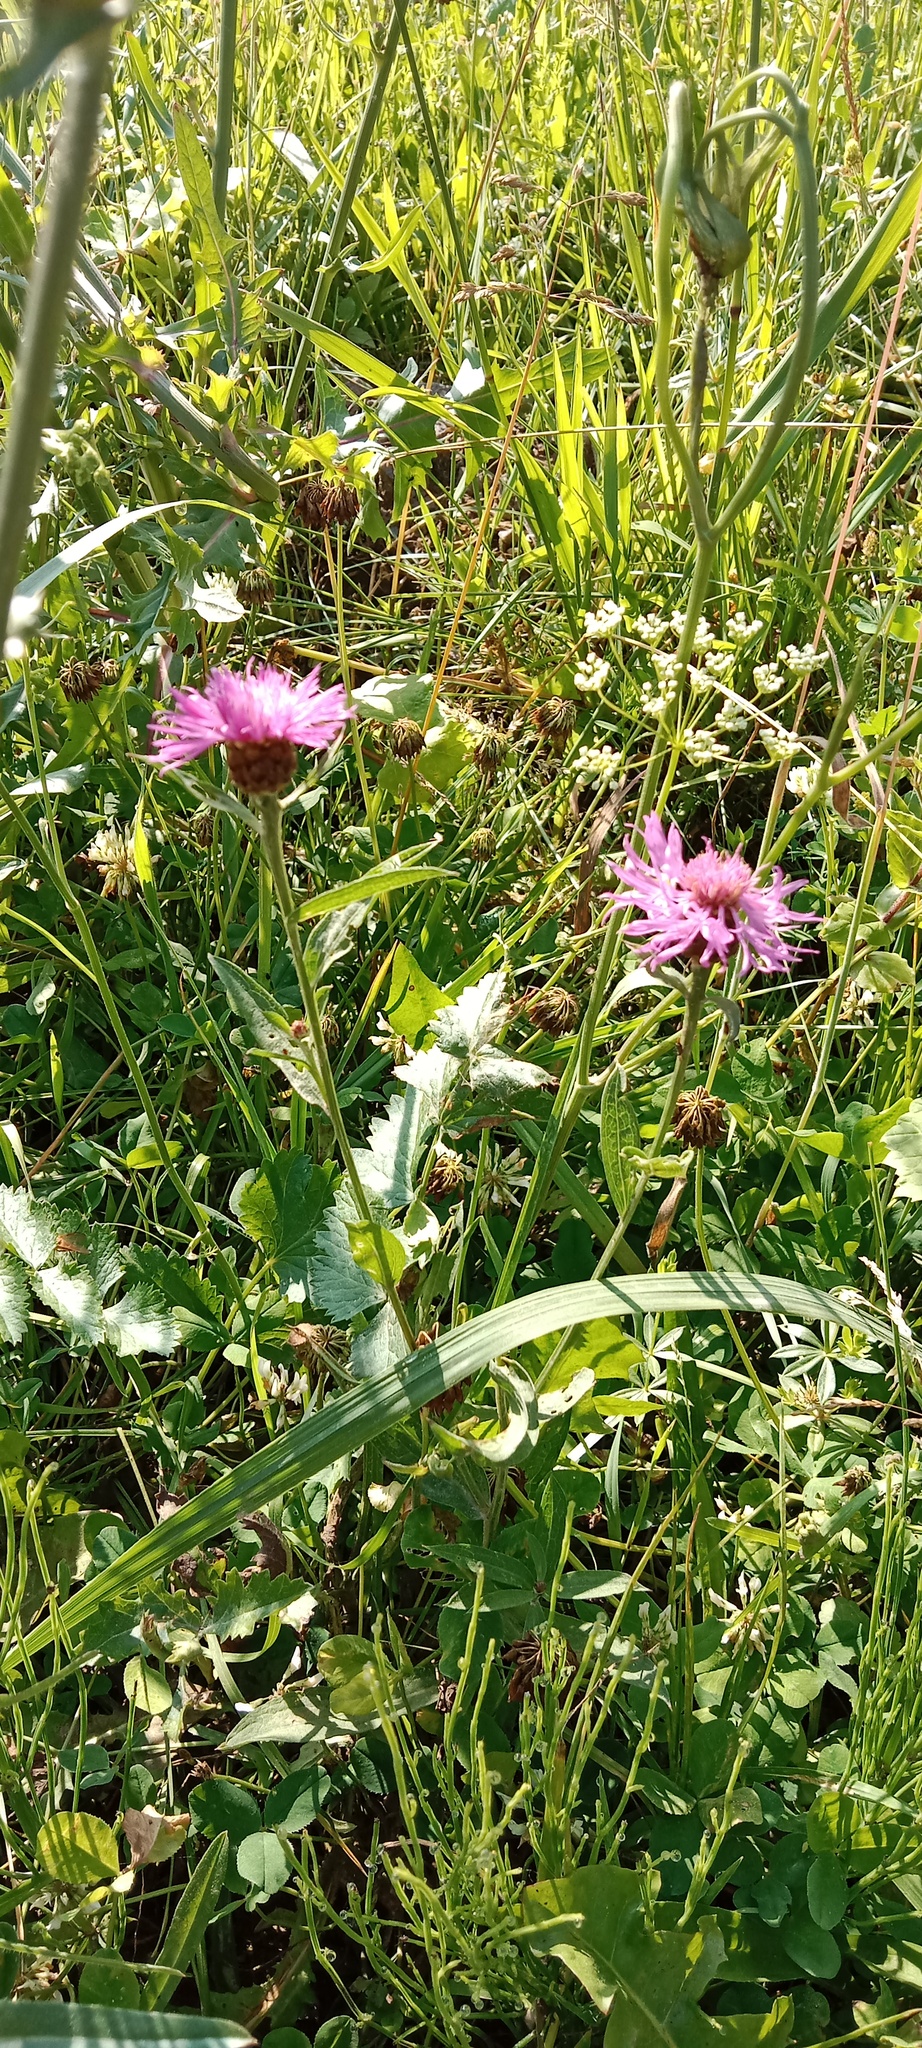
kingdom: Plantae
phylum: Tracheophyta
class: Magnoliopsida
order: Asterales
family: Asteraceae
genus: Centaurea
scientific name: Centaurea jacea
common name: Brown knapweed
